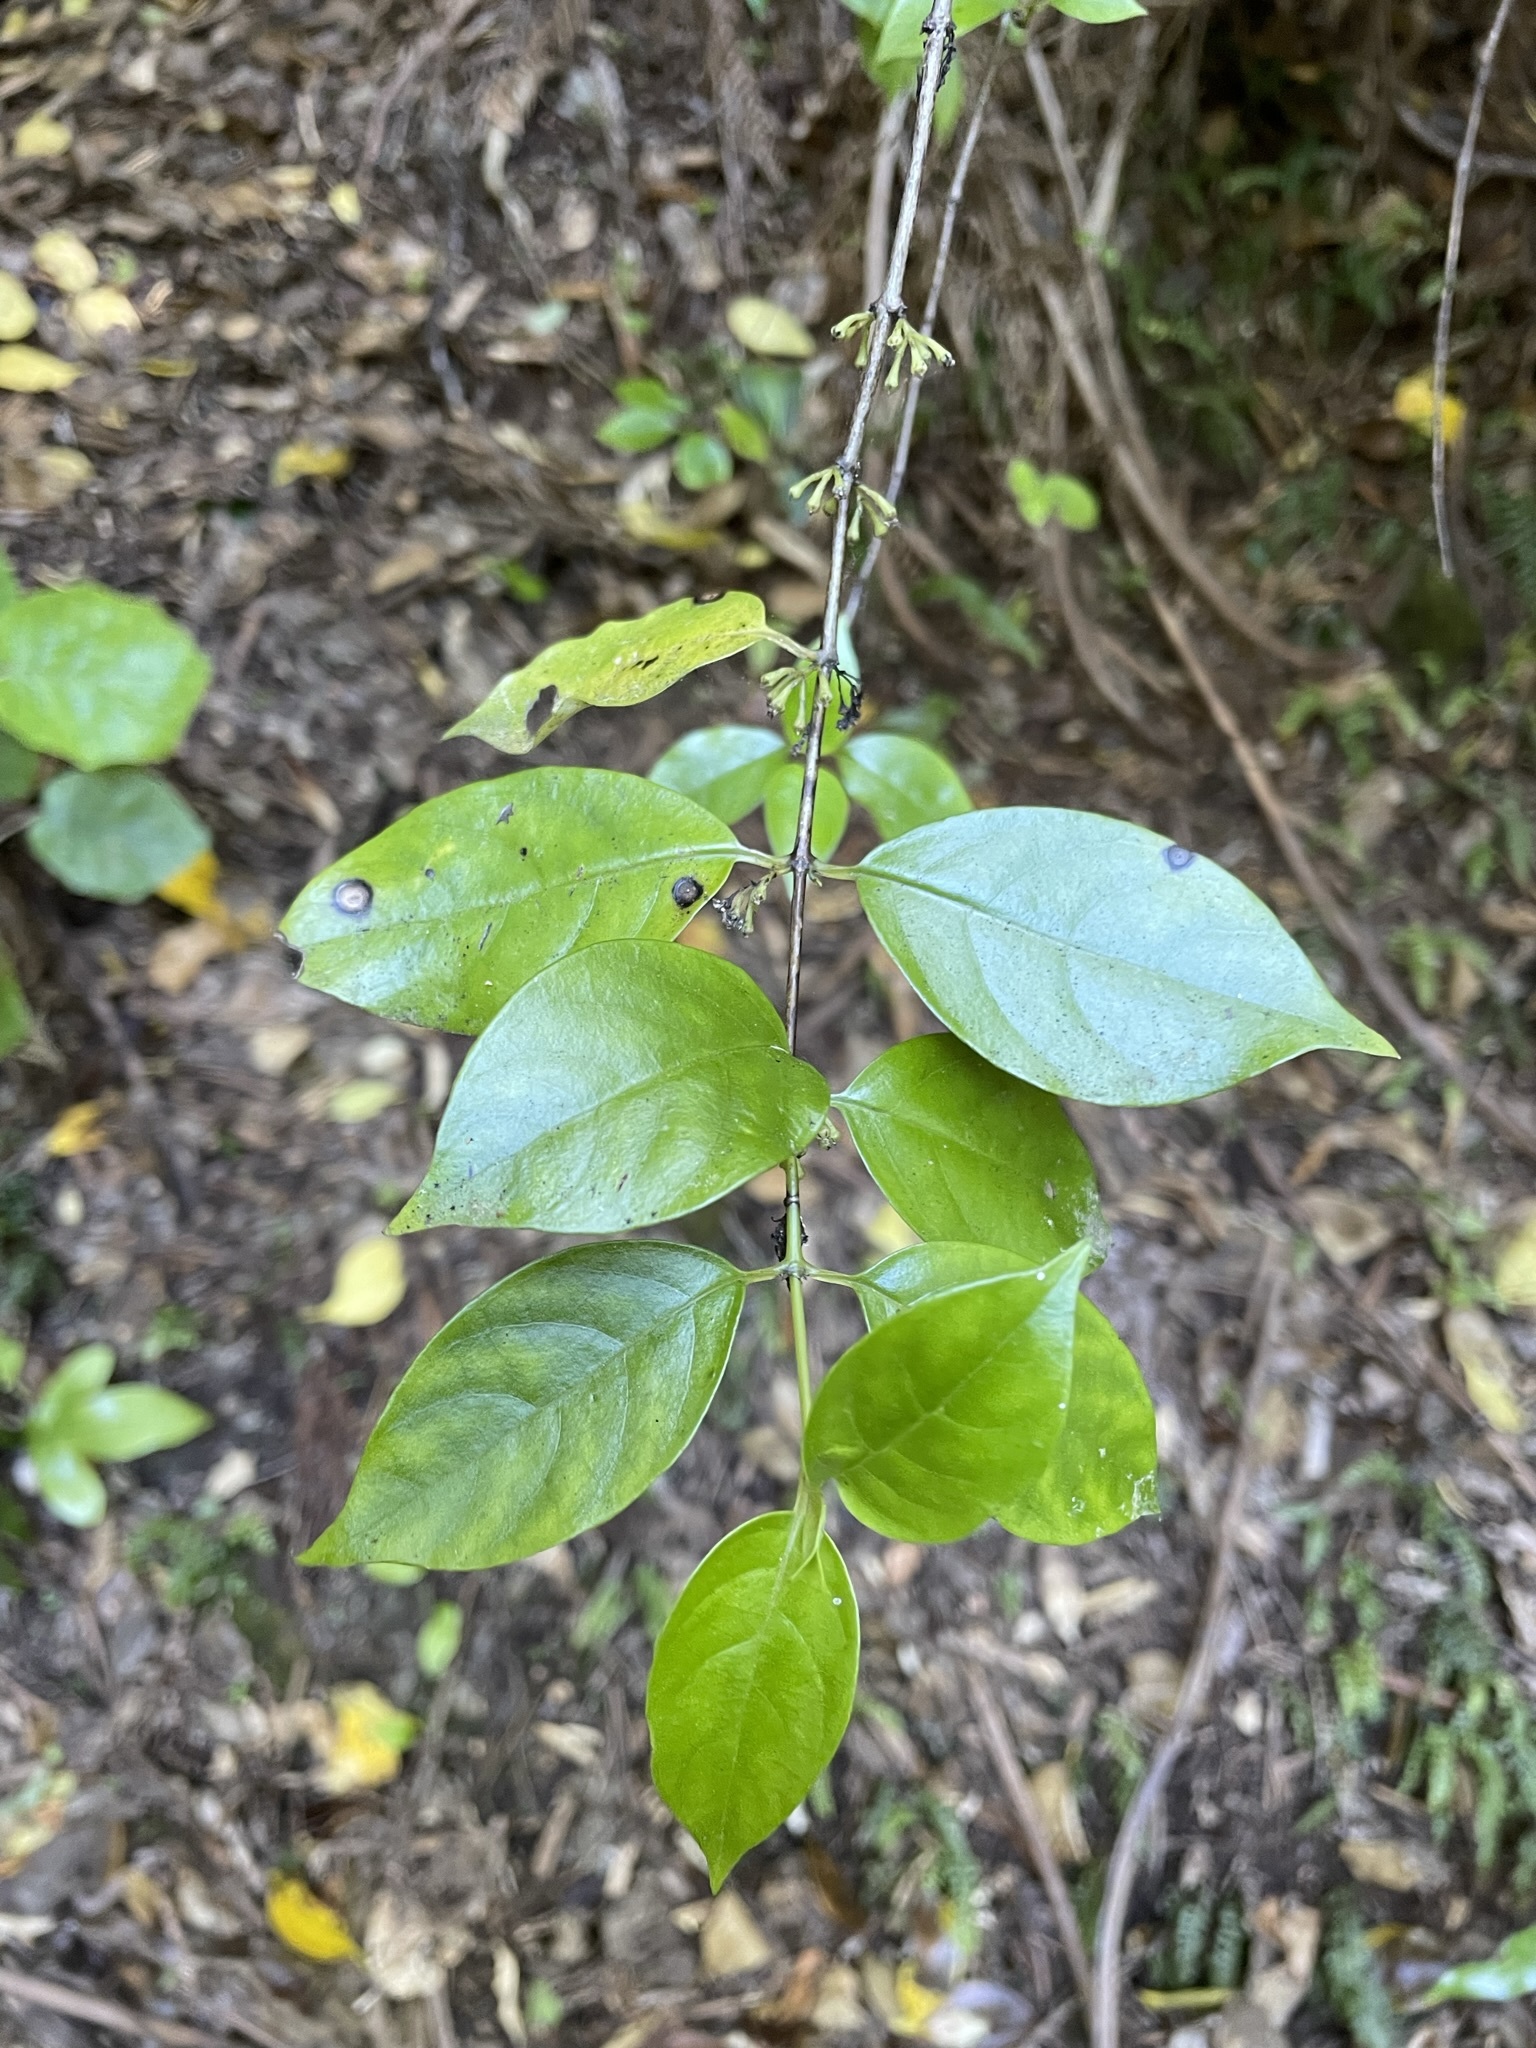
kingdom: Plantae
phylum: Tracheophyta
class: Magnoliopsida
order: Gentianales
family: Loganiaceae
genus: Geniostoma
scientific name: Geniostoma ligustrifolium
